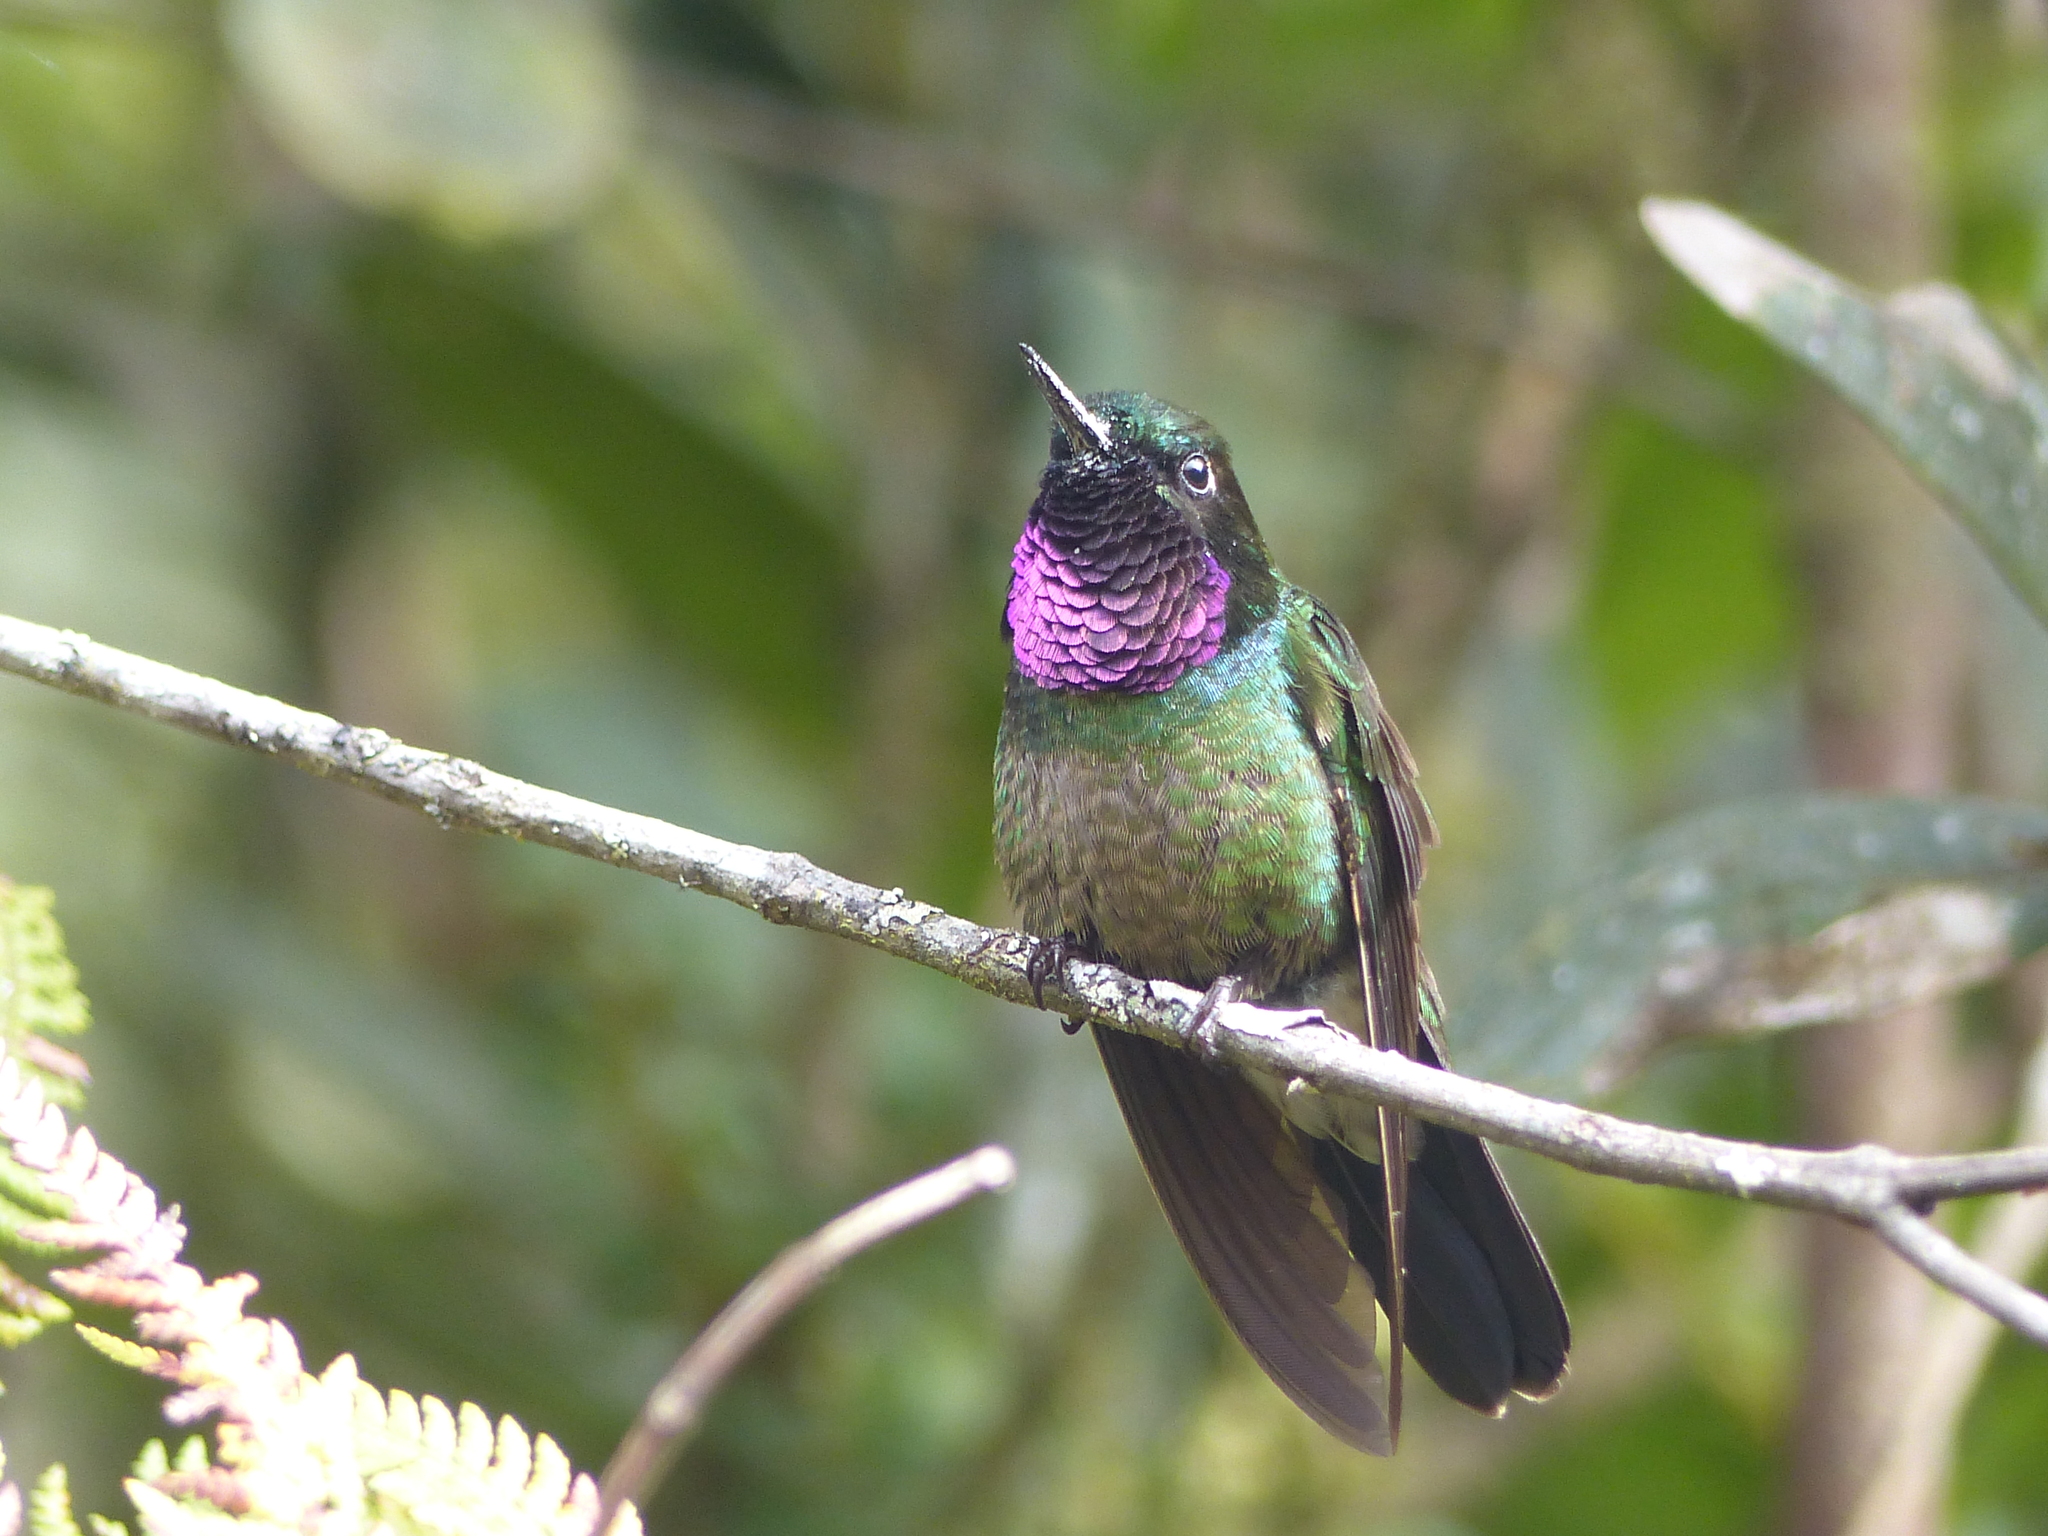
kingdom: Animalia
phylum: Chordata
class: Aves
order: Apodiformes
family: Trochilidae
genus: Heliangelus
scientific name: Heliangelus clarisse
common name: Longuemare's sunangel
